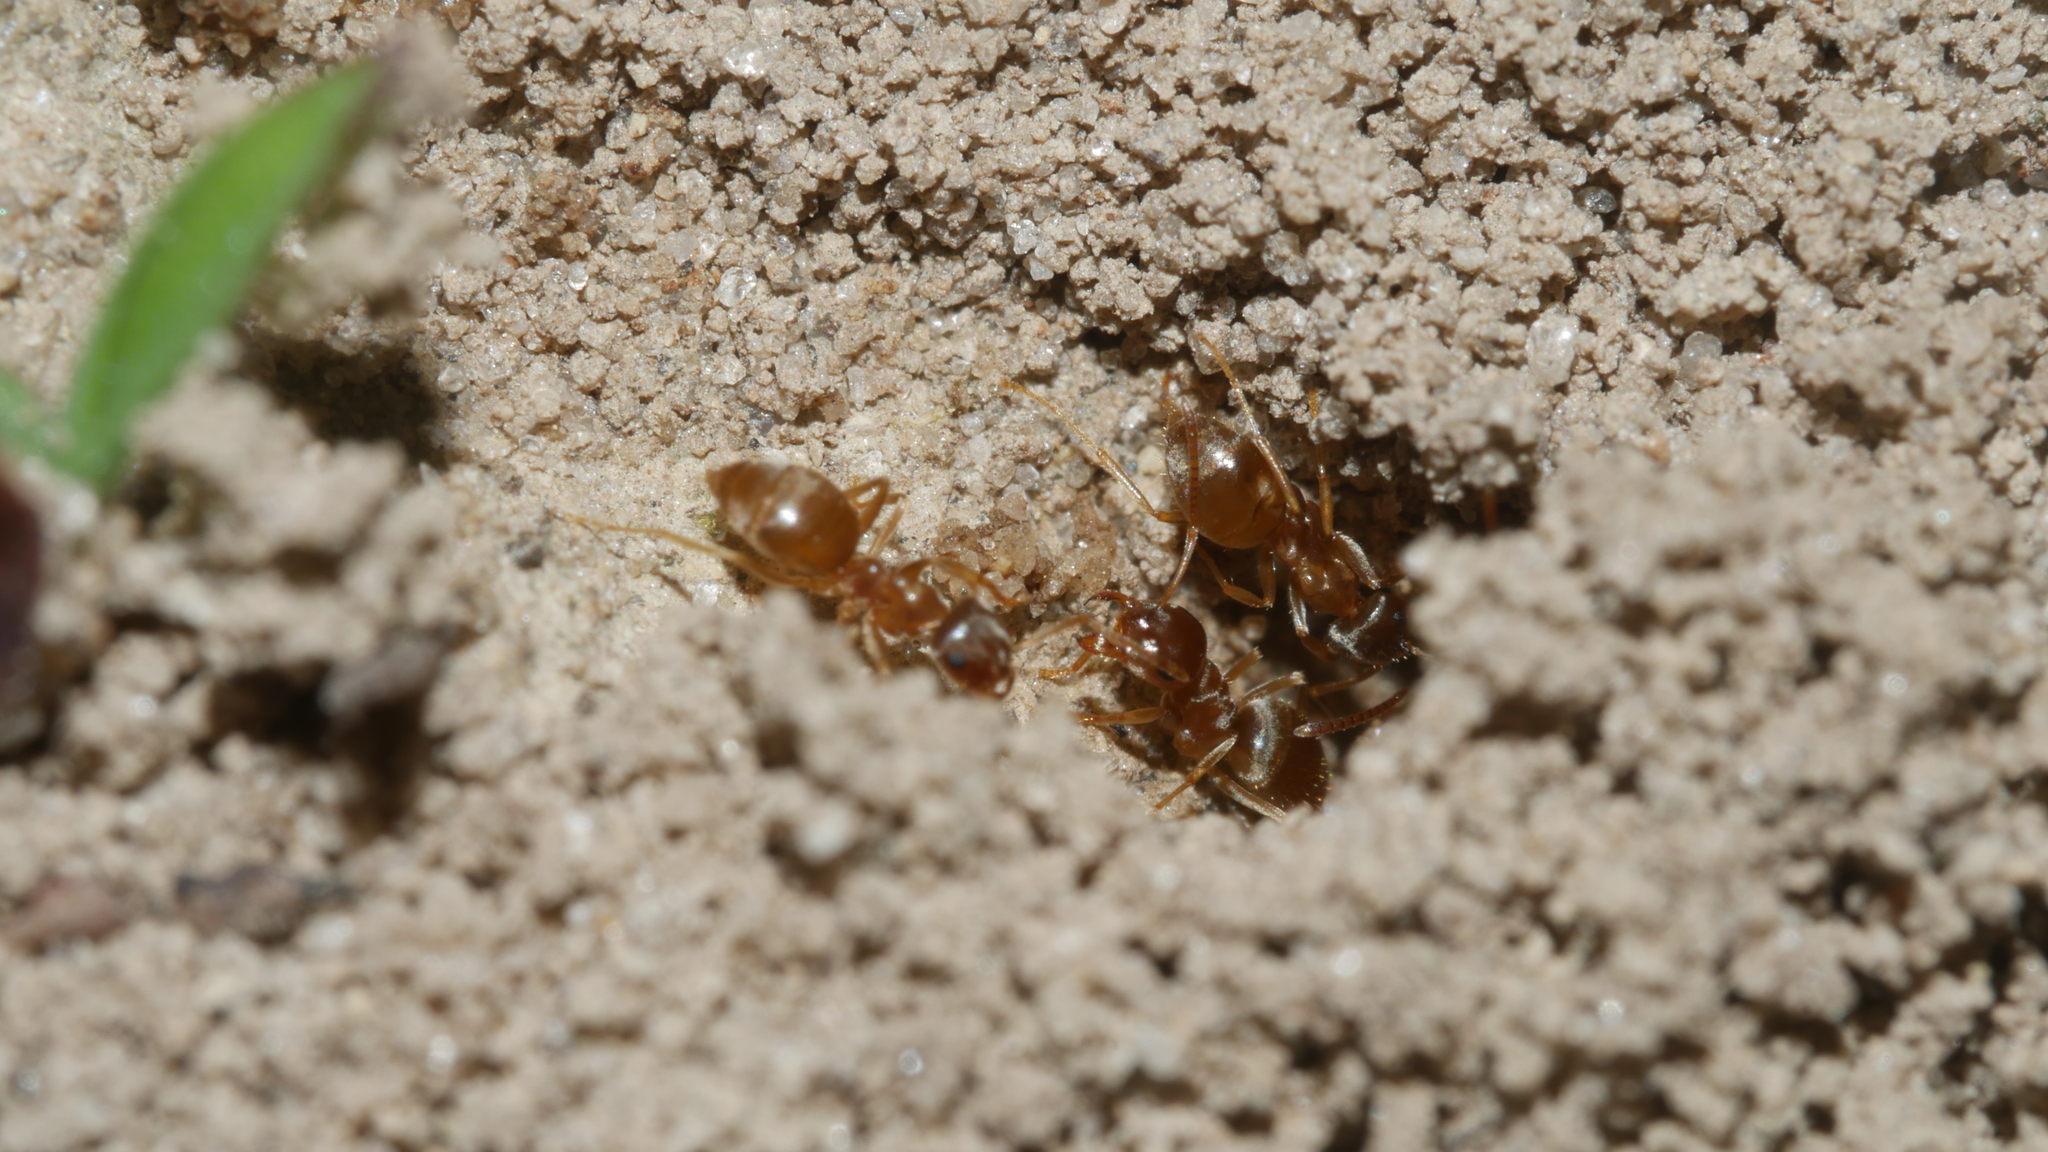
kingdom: Animalia
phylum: Arthropoda
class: Insecta
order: Hymenoptera
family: Formicidae
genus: Lasius
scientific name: Lasius neoniger
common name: Turfgrass ant
